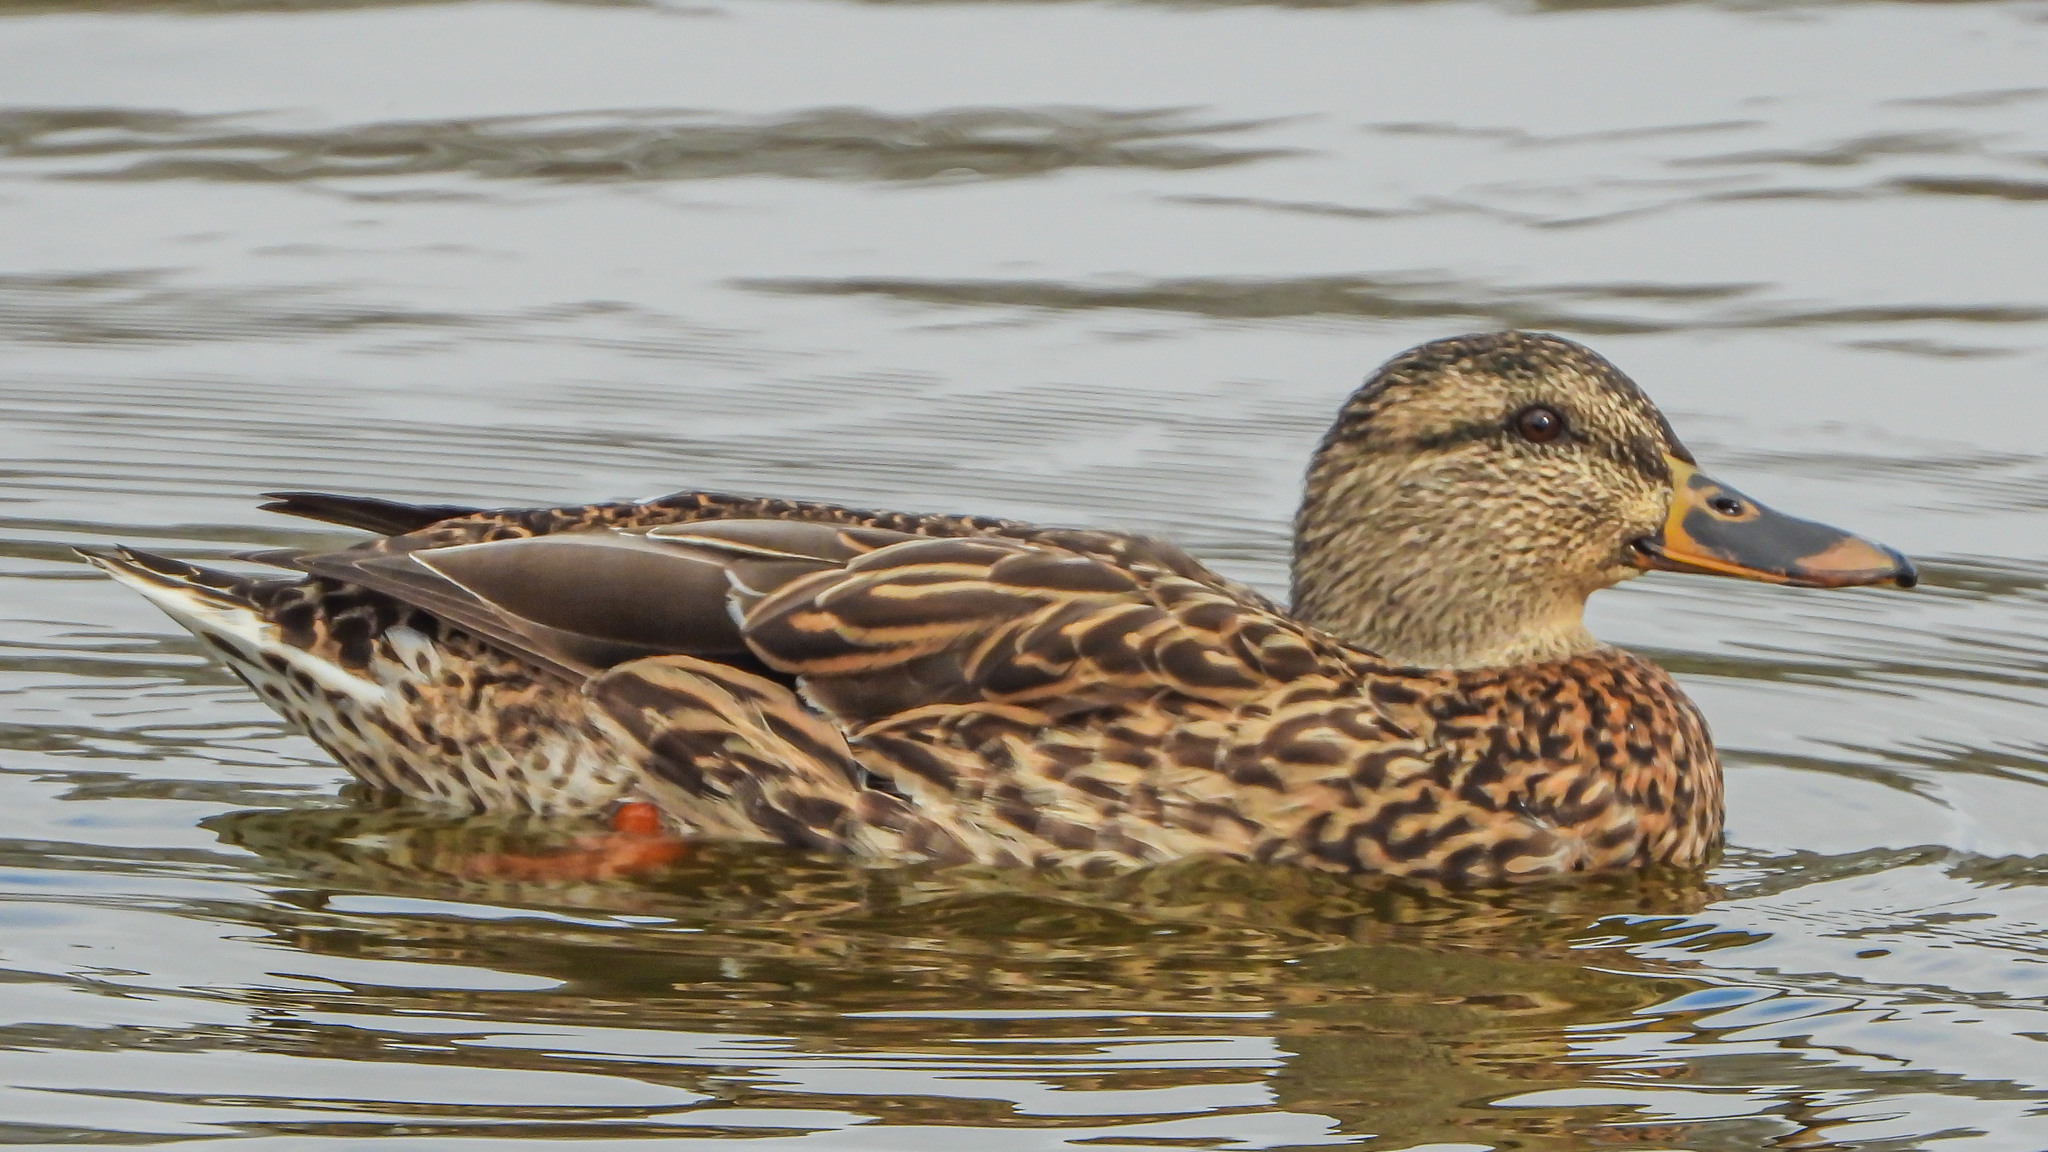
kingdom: Animalia
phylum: Chordata
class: Aves
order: Anseriformes
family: Anatidae
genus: Anas
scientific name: Anas platyrhynchos
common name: Mallard
